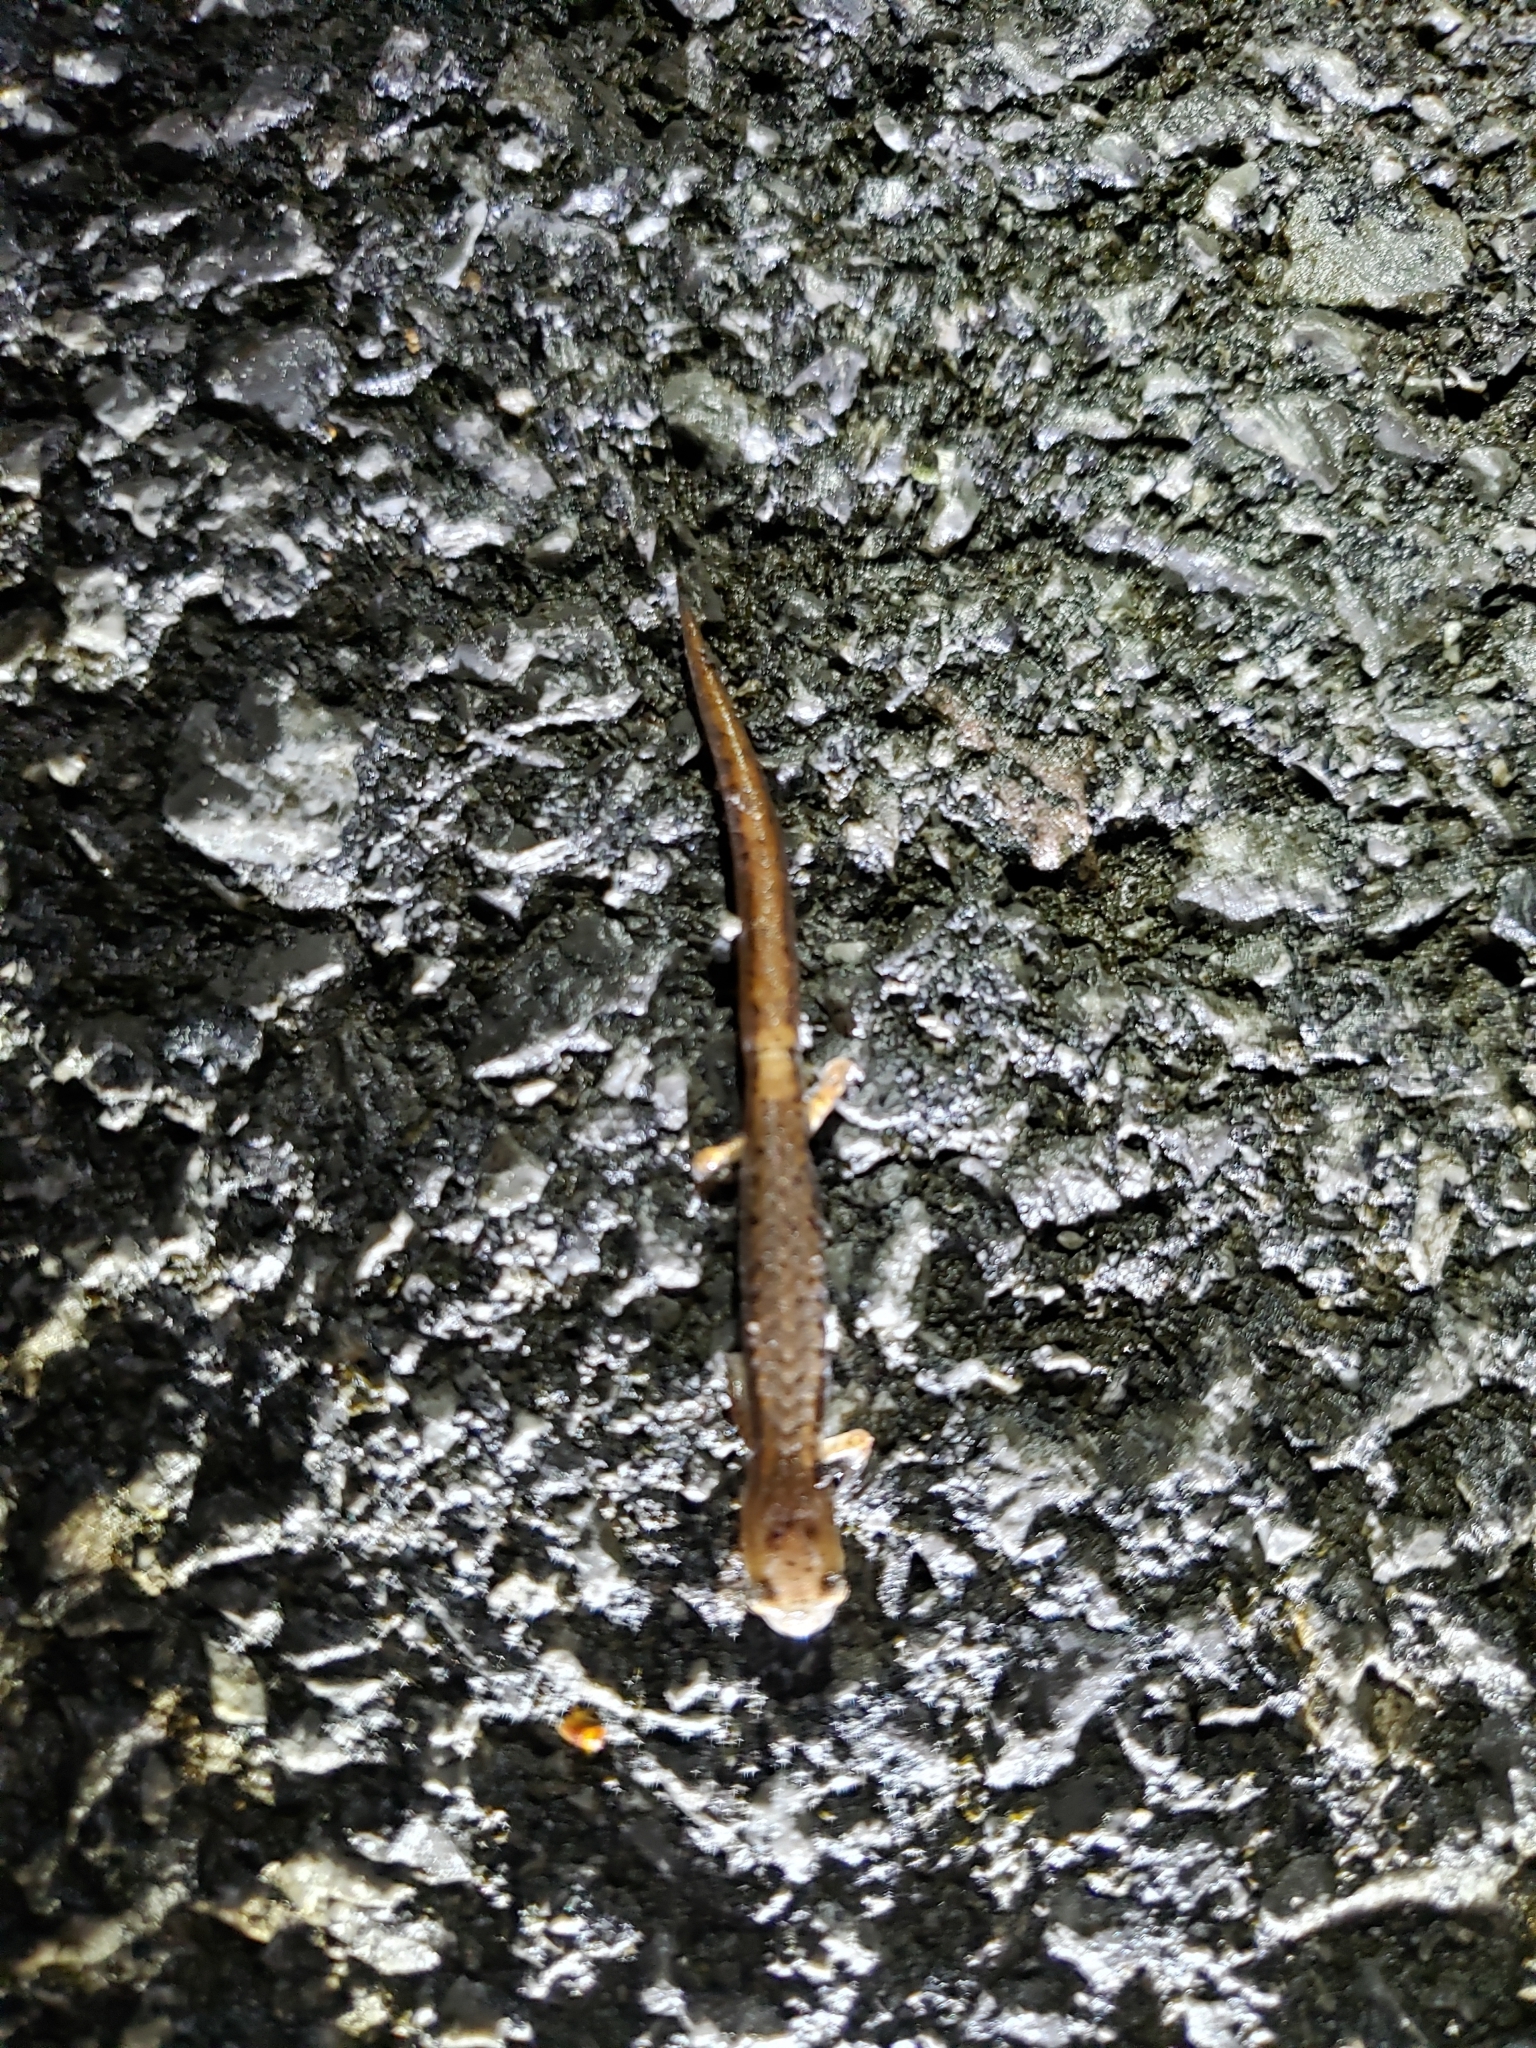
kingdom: Animalia
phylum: Chordata
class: Amphibia
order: Caudata
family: Plethodontidae
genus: Hemidactylium
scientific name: Hemidactylium scutatum
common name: Four-toed salamander
